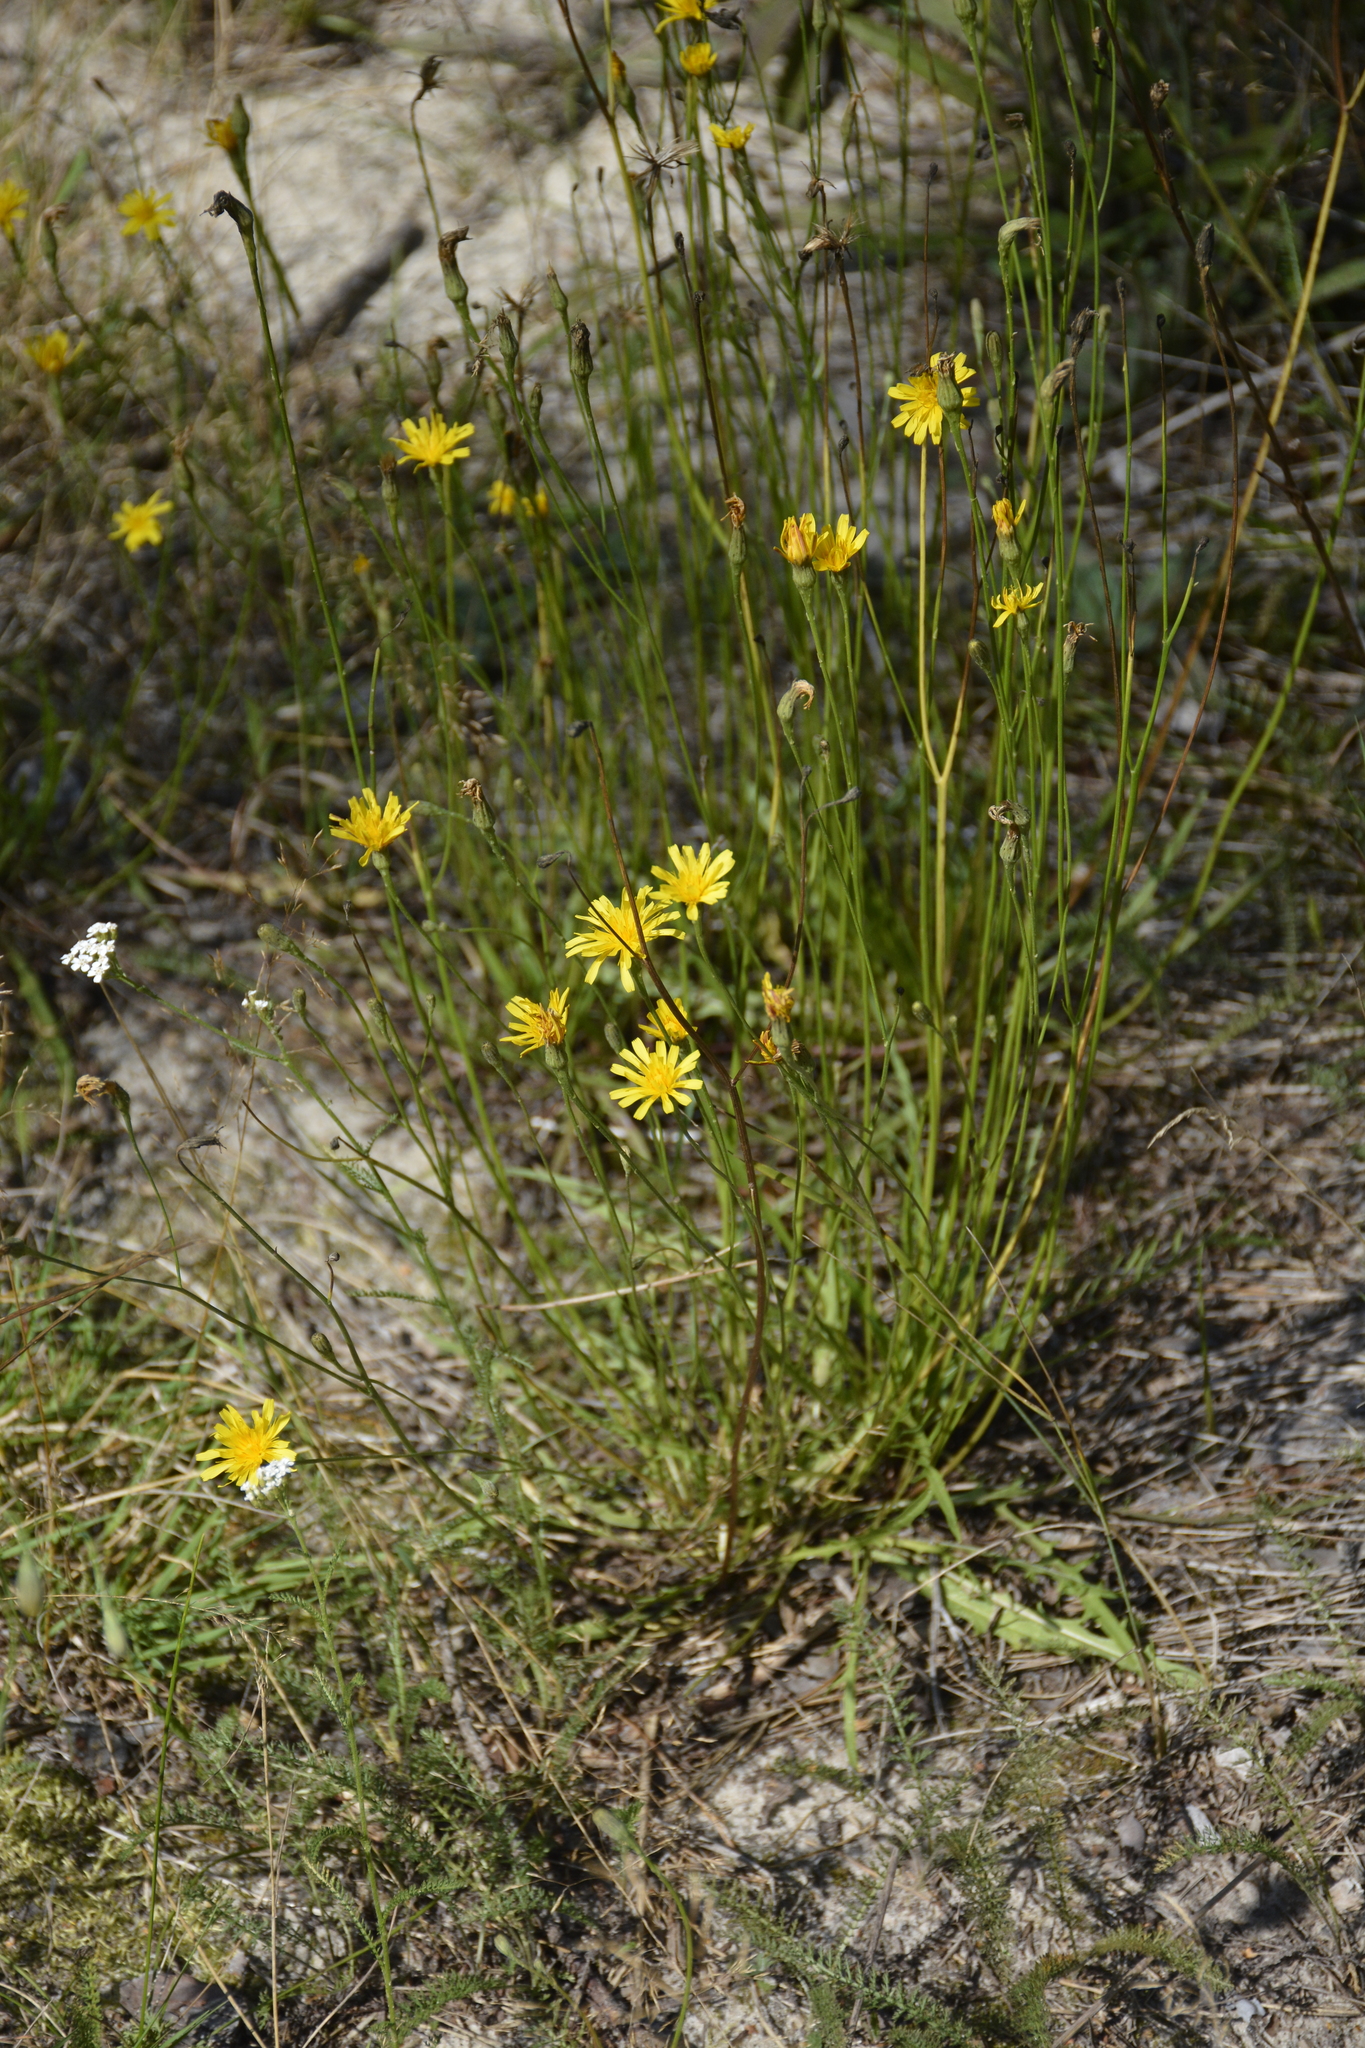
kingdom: Plantae
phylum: Tracheophyta
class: Magnoliopsida
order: Asterales
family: Asteraceae
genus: Scorzoneroides
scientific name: Scorzoneroides autumnalis
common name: Autumn hawkbit
